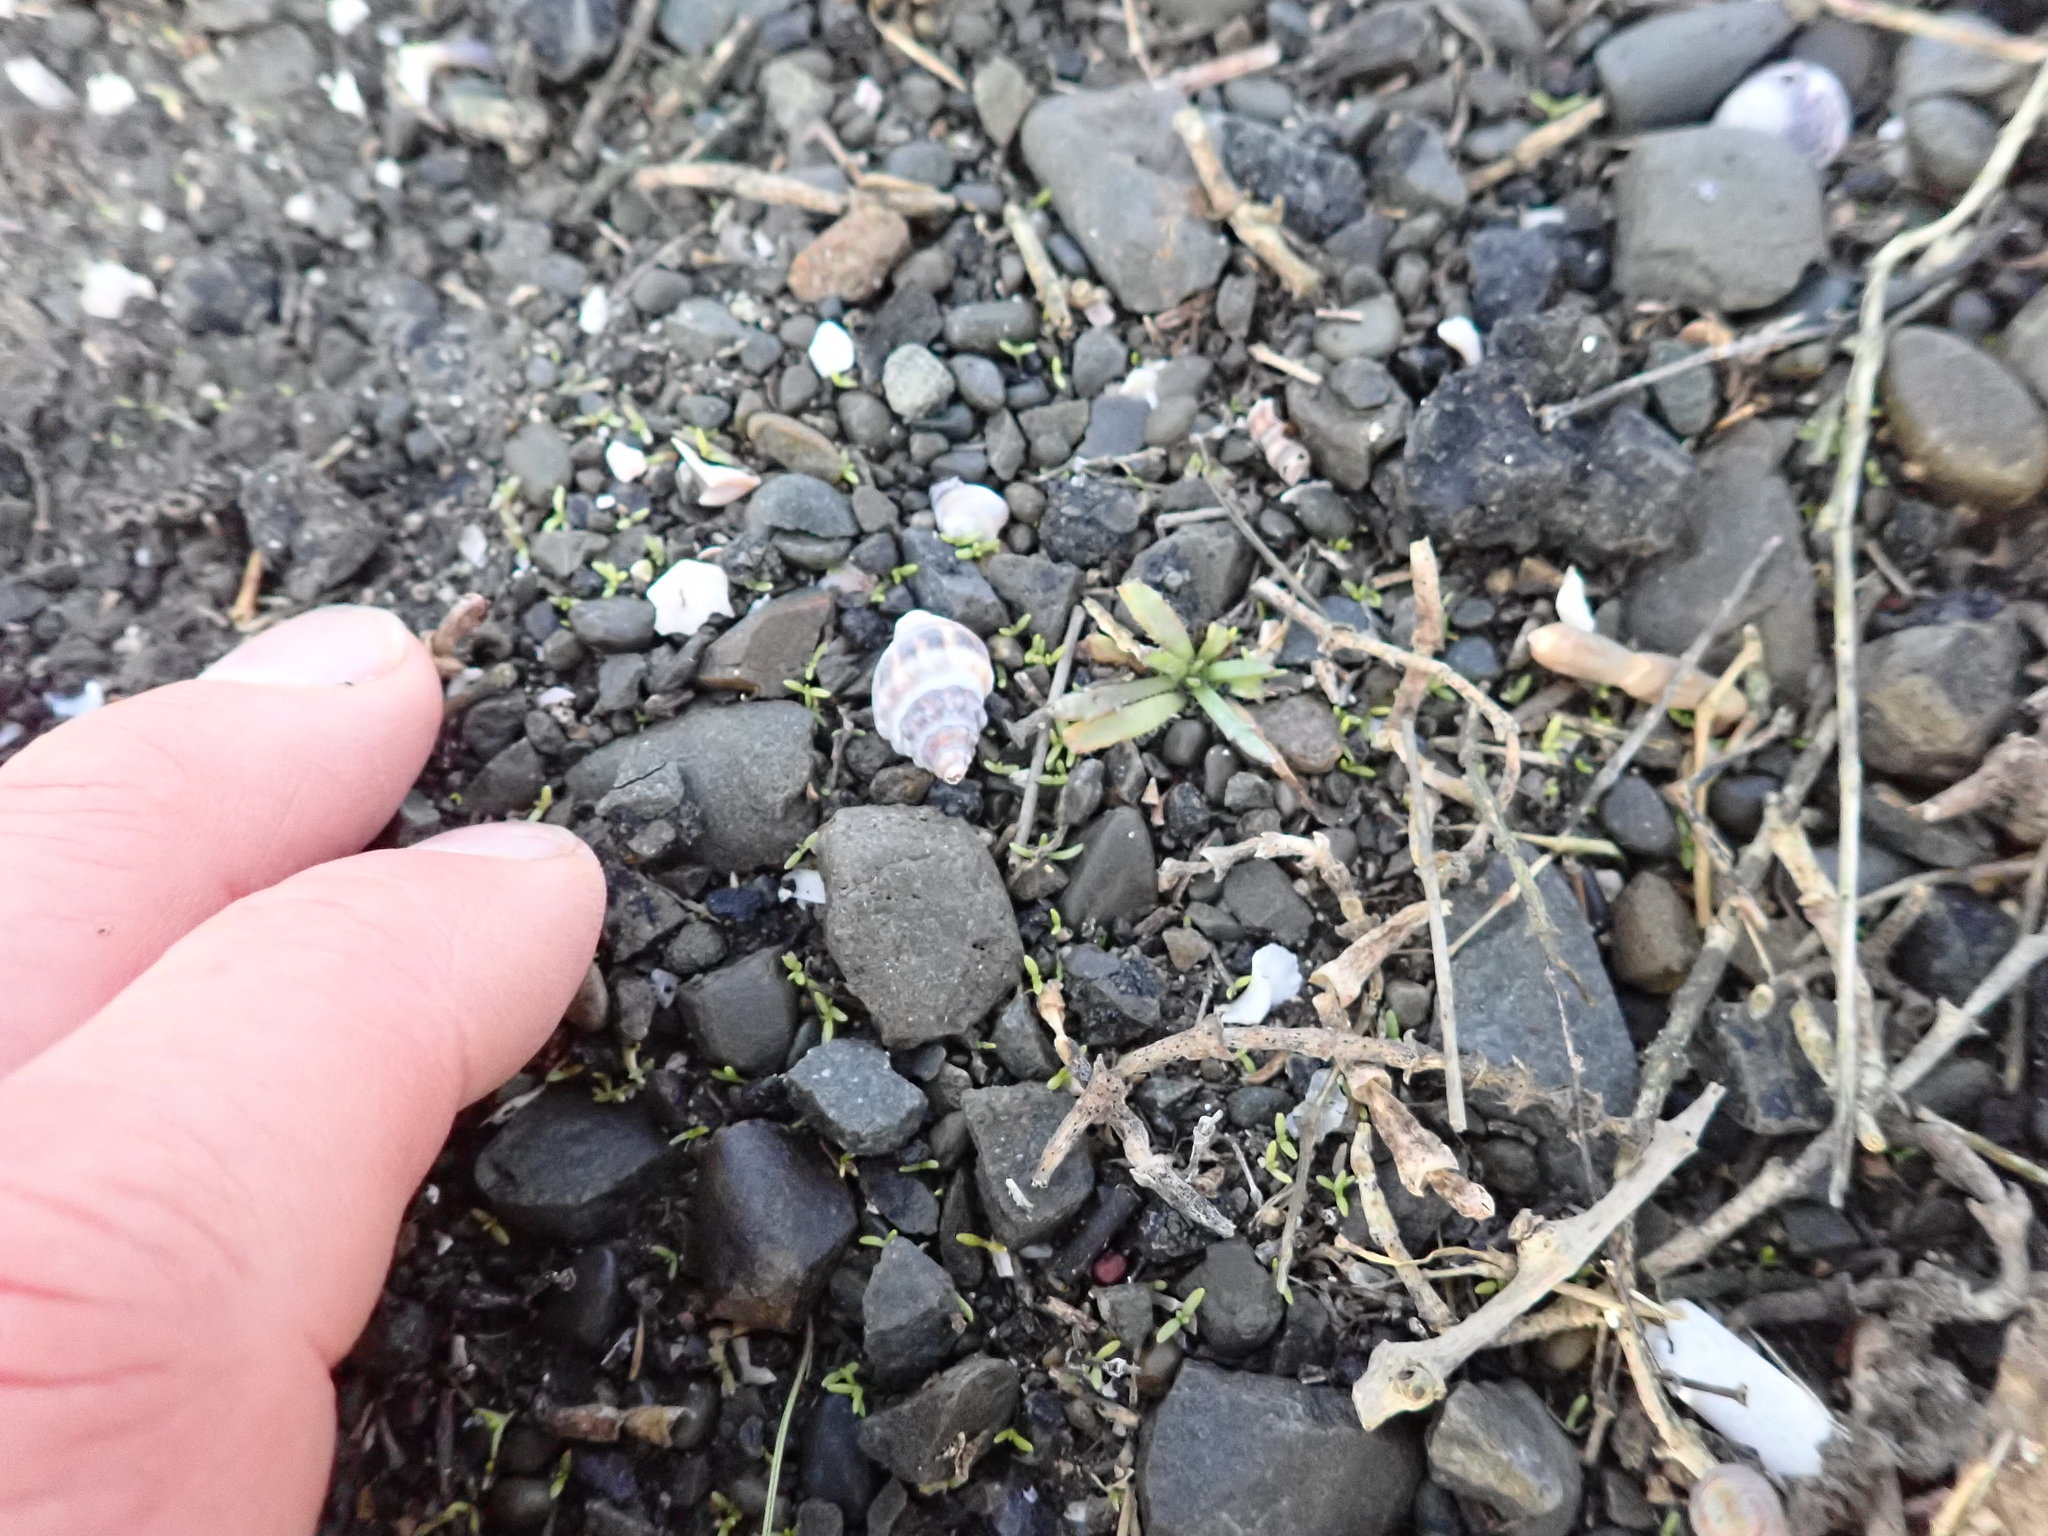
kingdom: Animalia
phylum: Mollusca
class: Gastropoda
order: Neogastropoda
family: Cominellidae
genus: Cominella
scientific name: Cominella glandiformis
